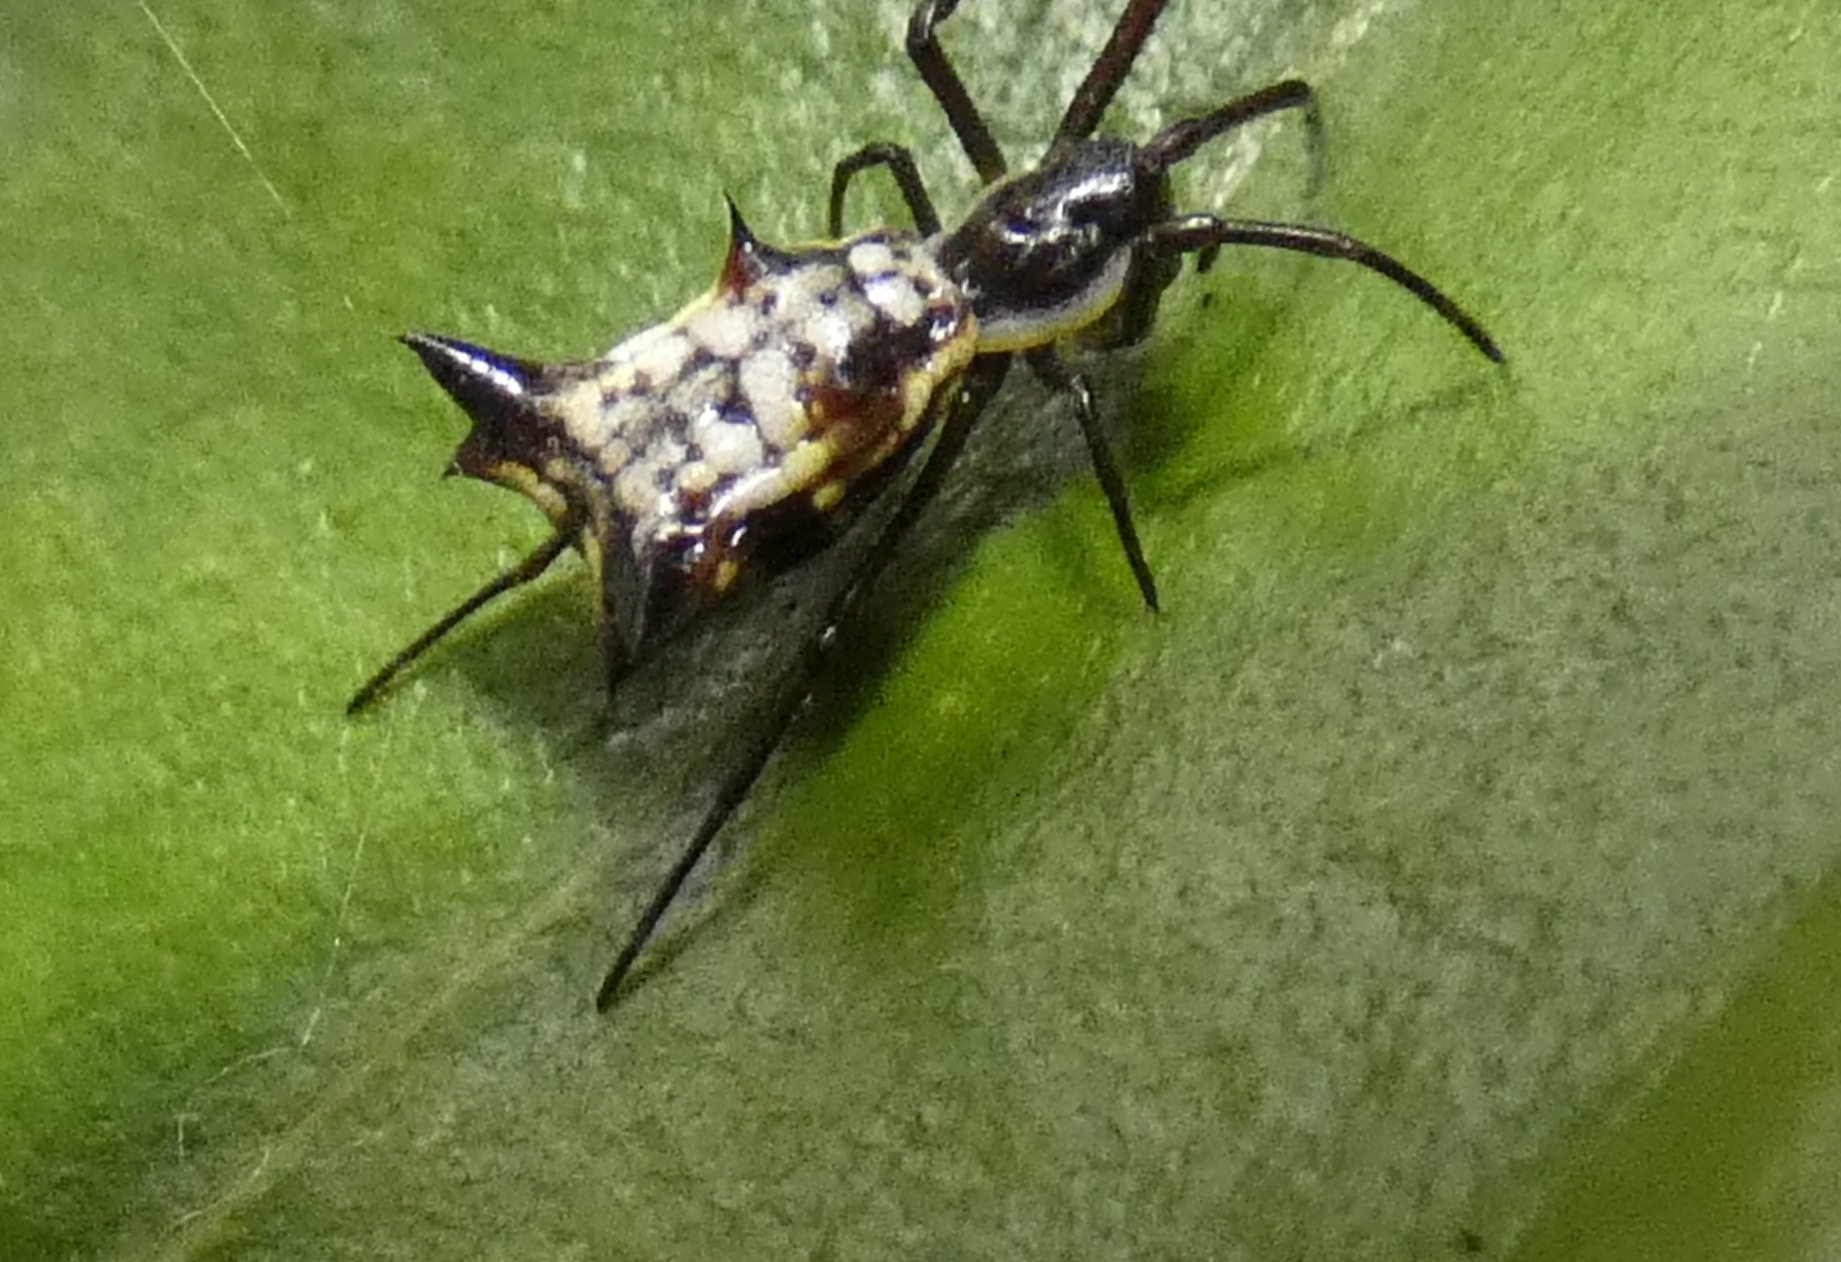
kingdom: Animalia
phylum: Arthropoda
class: Arachnida
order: Araneae
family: Araneidae
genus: Micrathena
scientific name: Micrathena fissispina
